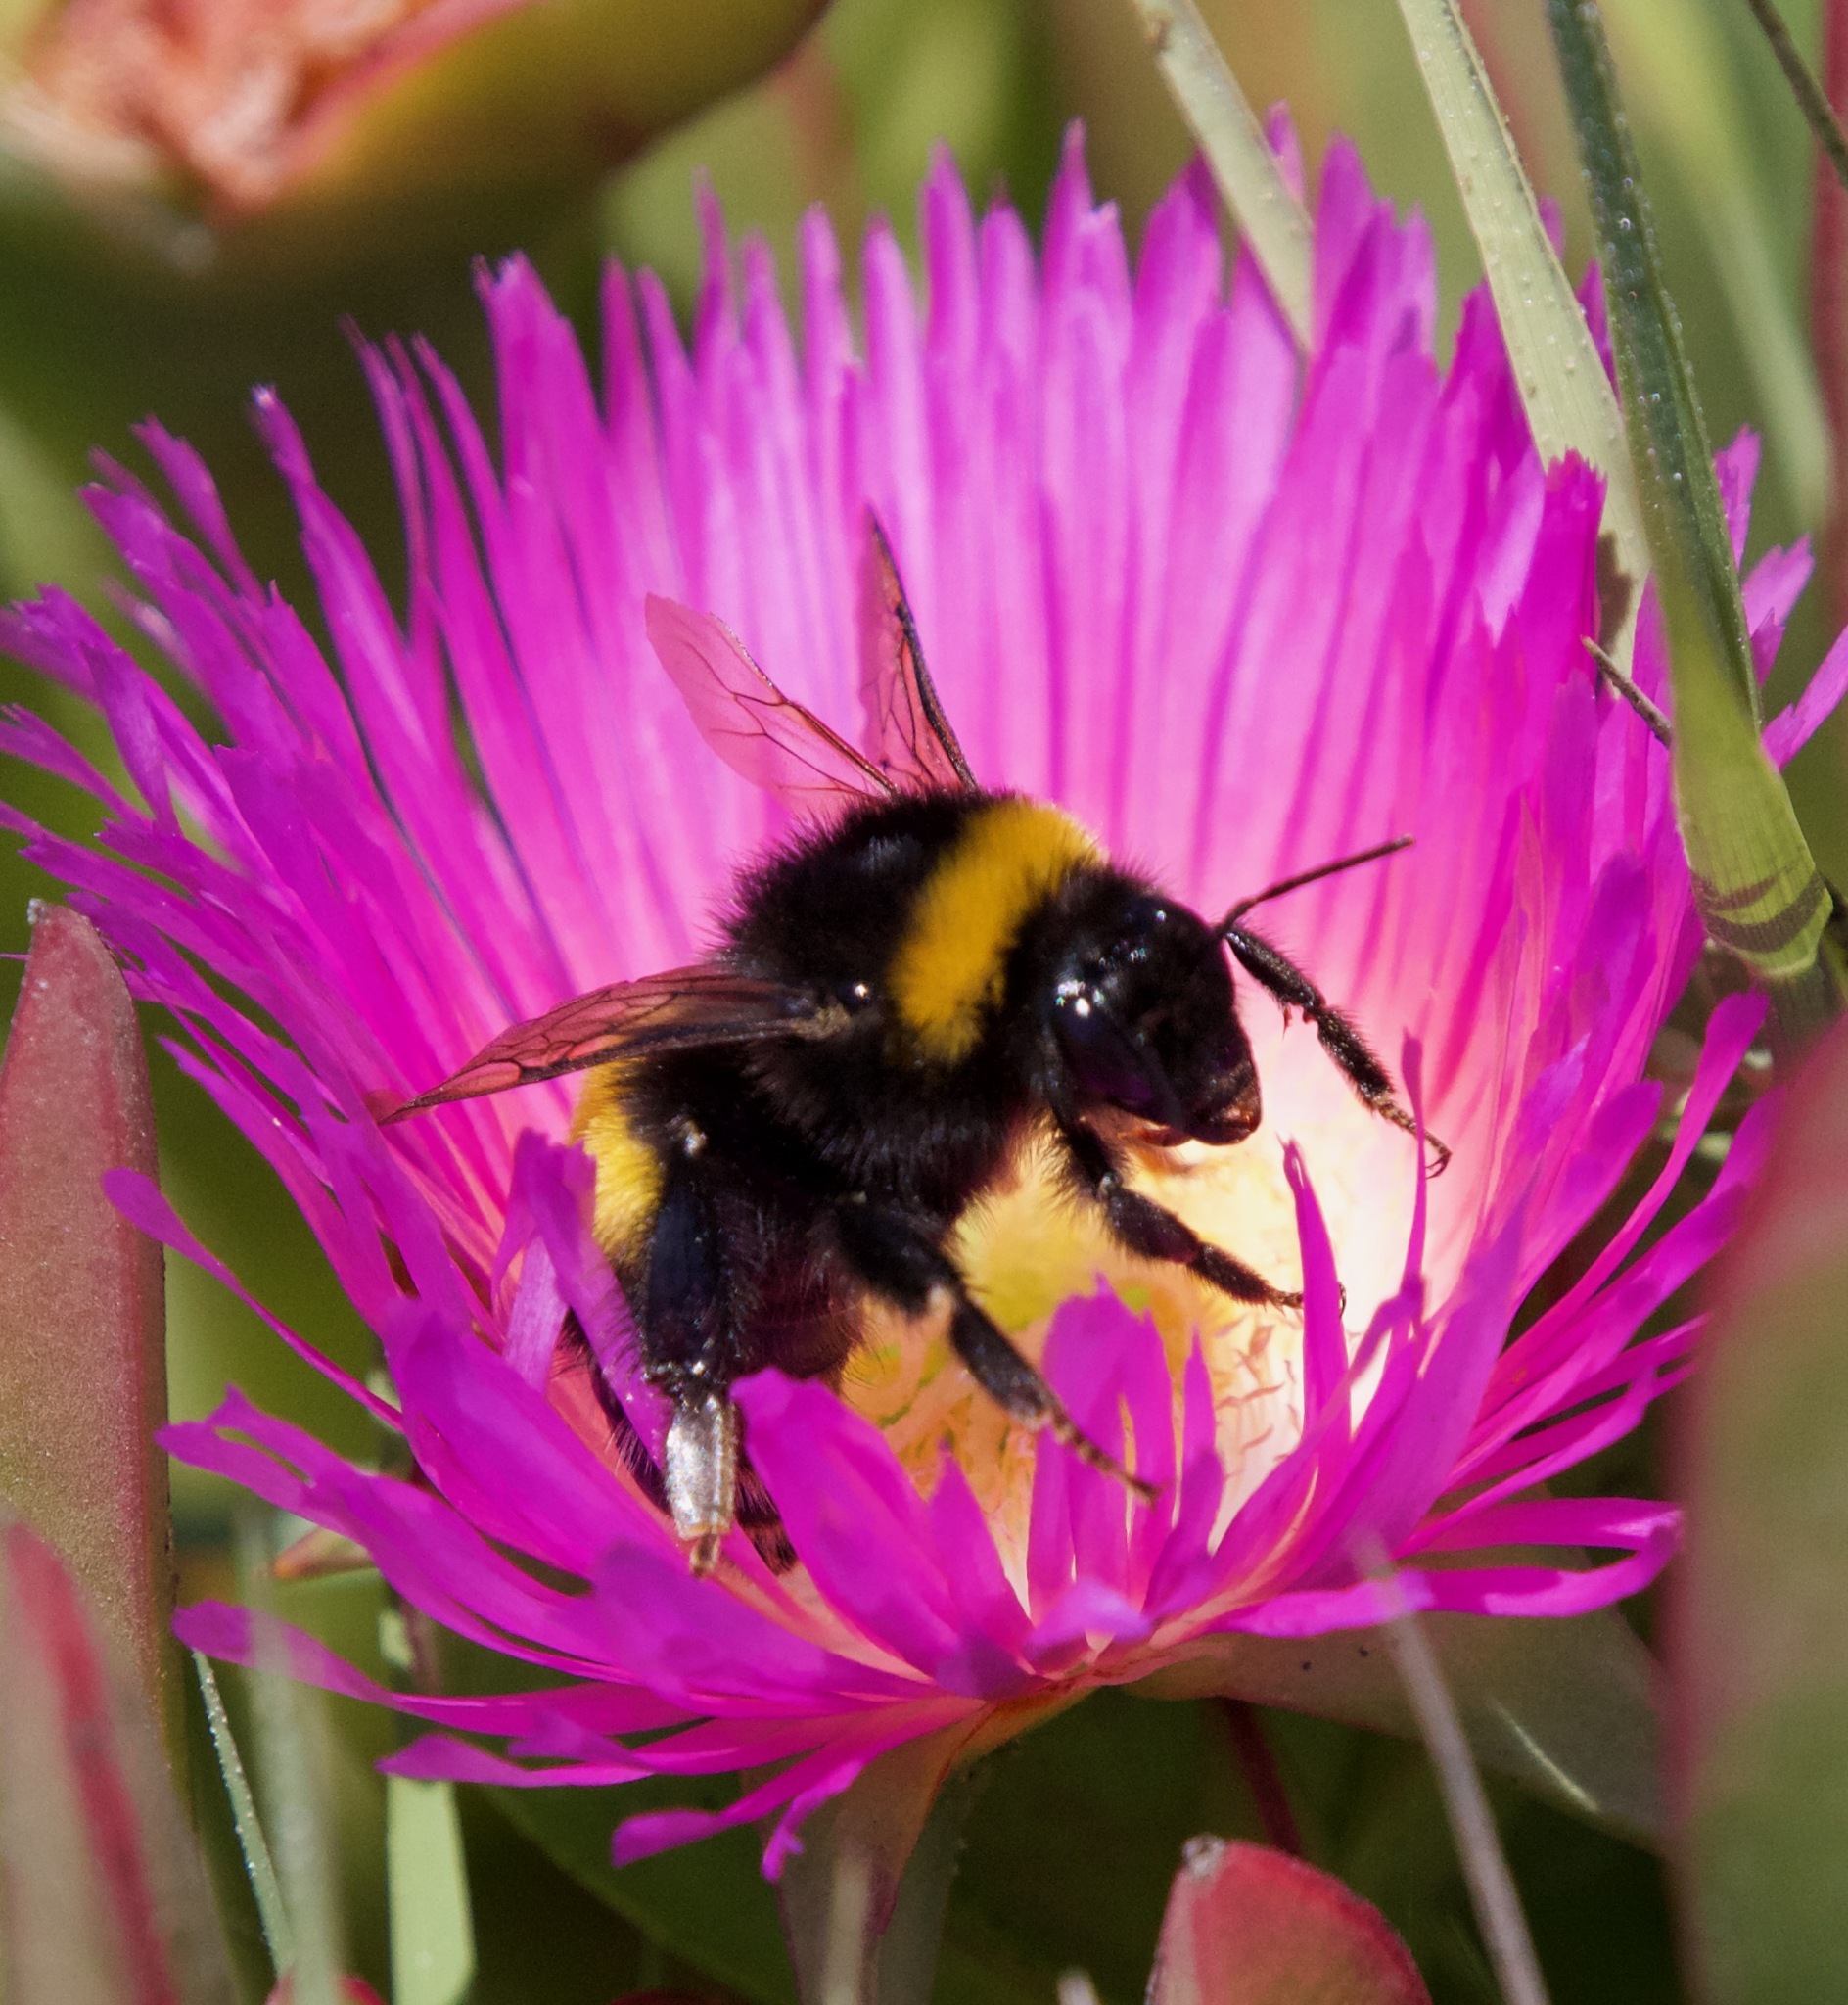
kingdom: Animalia
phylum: Arthropoda
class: Insecta
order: Hymenoptera
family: Apidae
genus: Bombus
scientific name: Bombus terrestris
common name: Buff-tailed bumblebee
